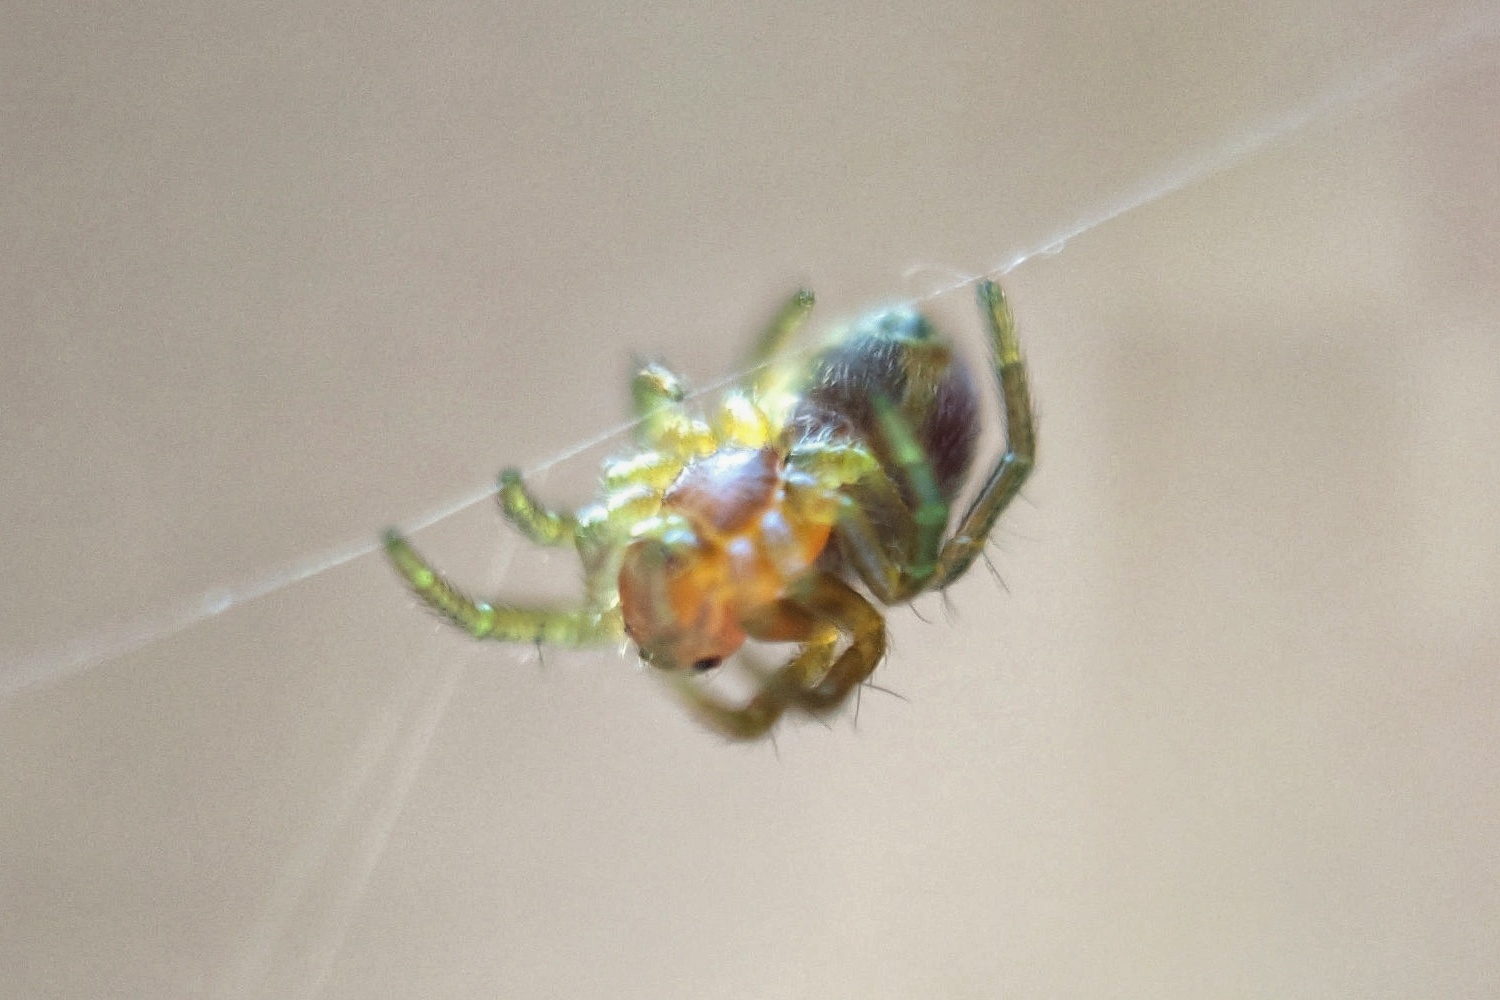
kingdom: Animalia
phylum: Arthropoda
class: Arachnida
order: Araneae
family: Araneidae
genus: Araniella
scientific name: Araniella
